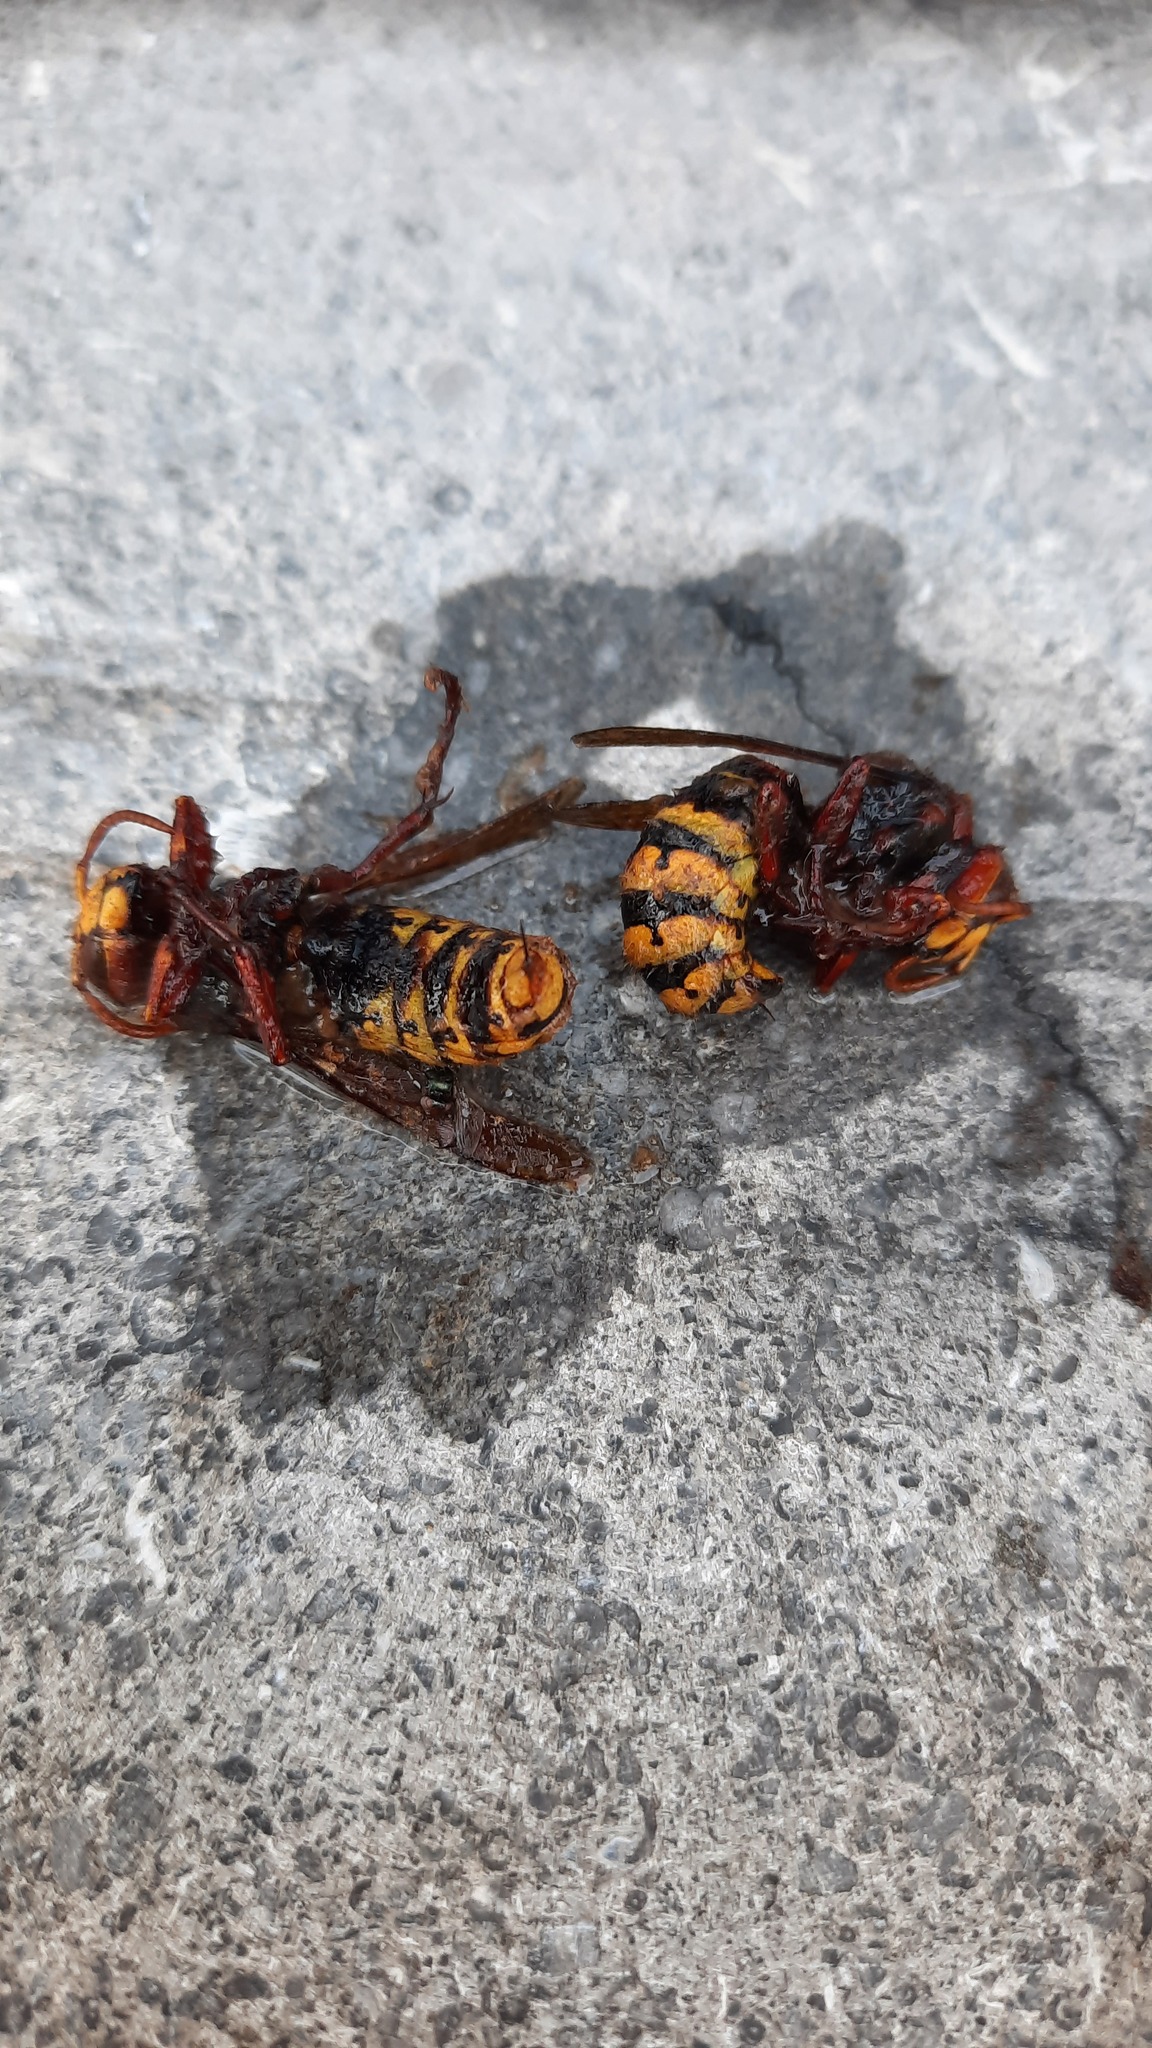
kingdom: Animalia
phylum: Arthropoda
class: Insecta
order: Hymenoptera
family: Vespidae
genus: Vespa
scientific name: Vespa crabro
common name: Hornet
